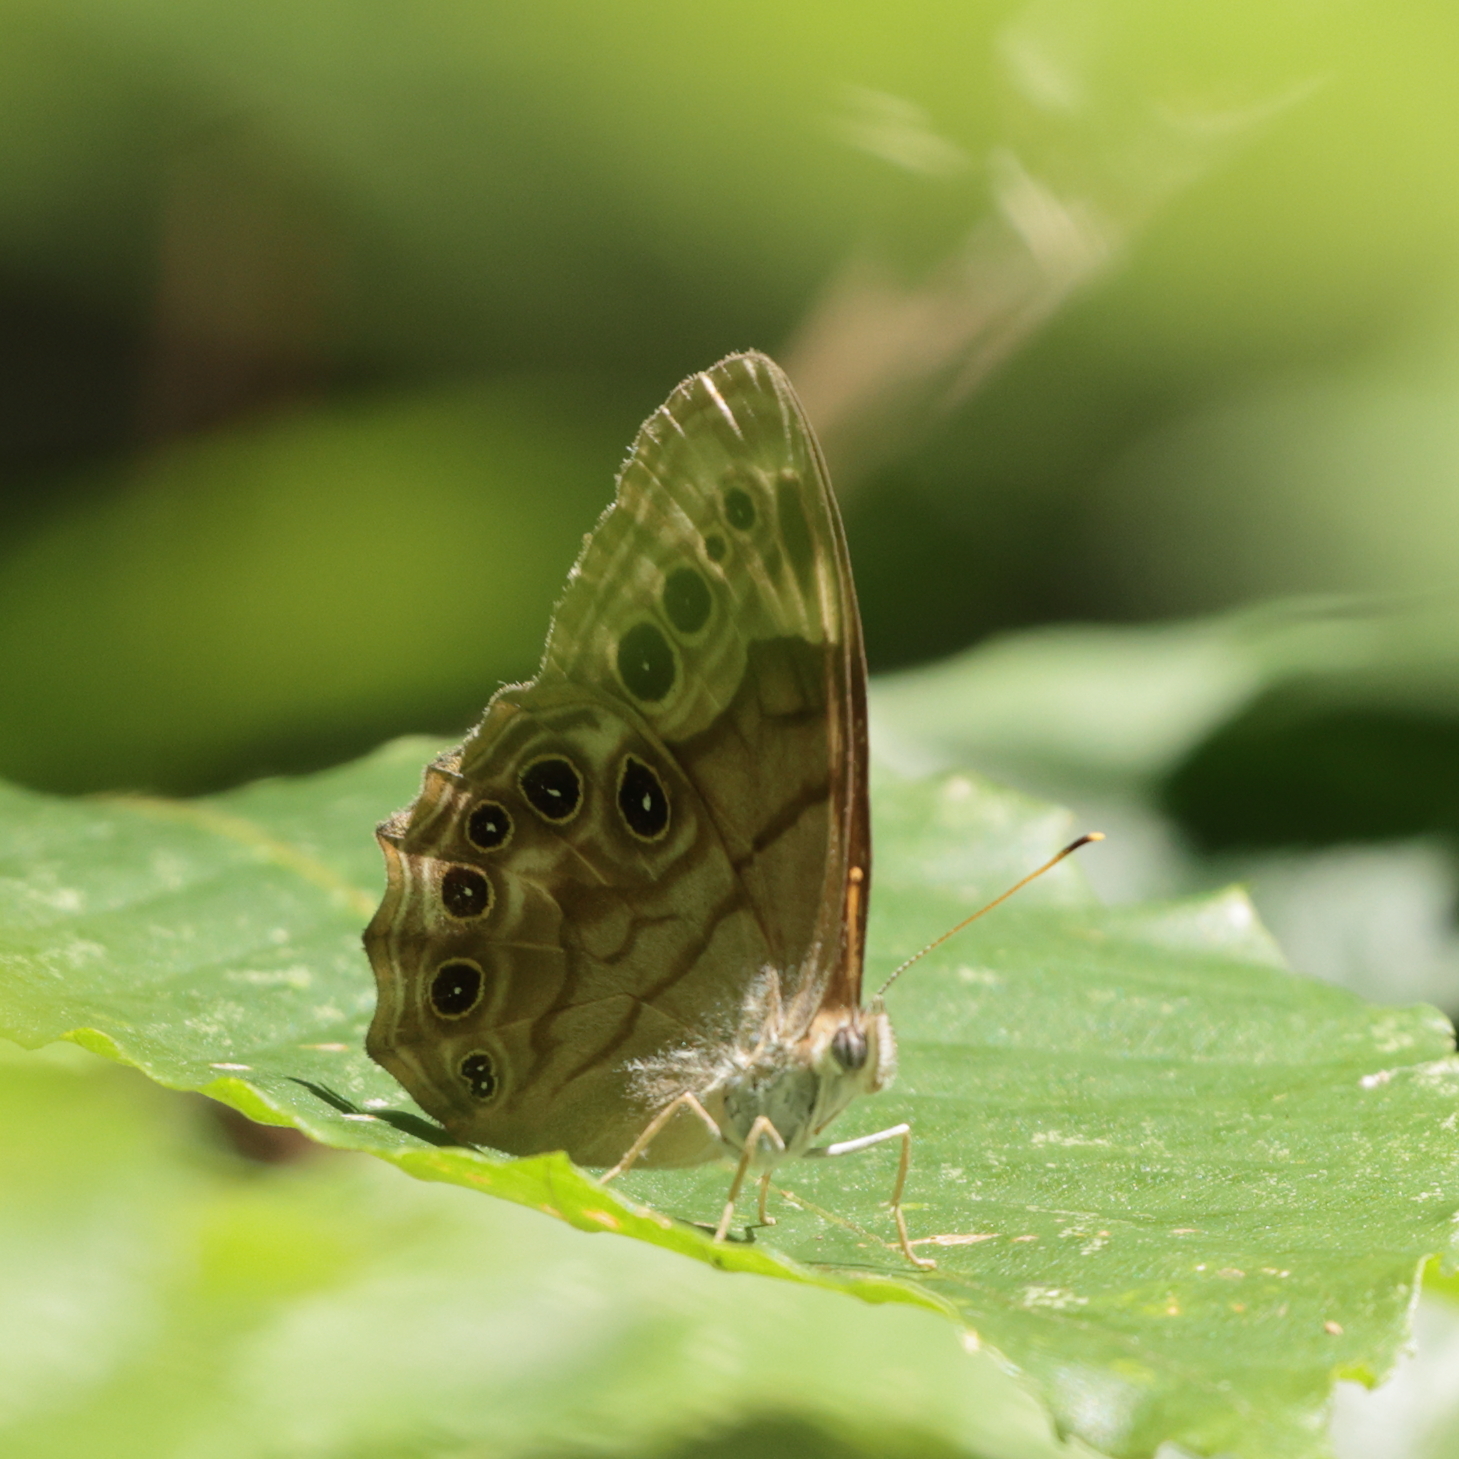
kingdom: Animalia
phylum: Arthropoda
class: Insecta
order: Lepidoptera
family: Nymphalidae
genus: Lethe
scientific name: Lethe anthedon
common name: Northern pearly-eye
